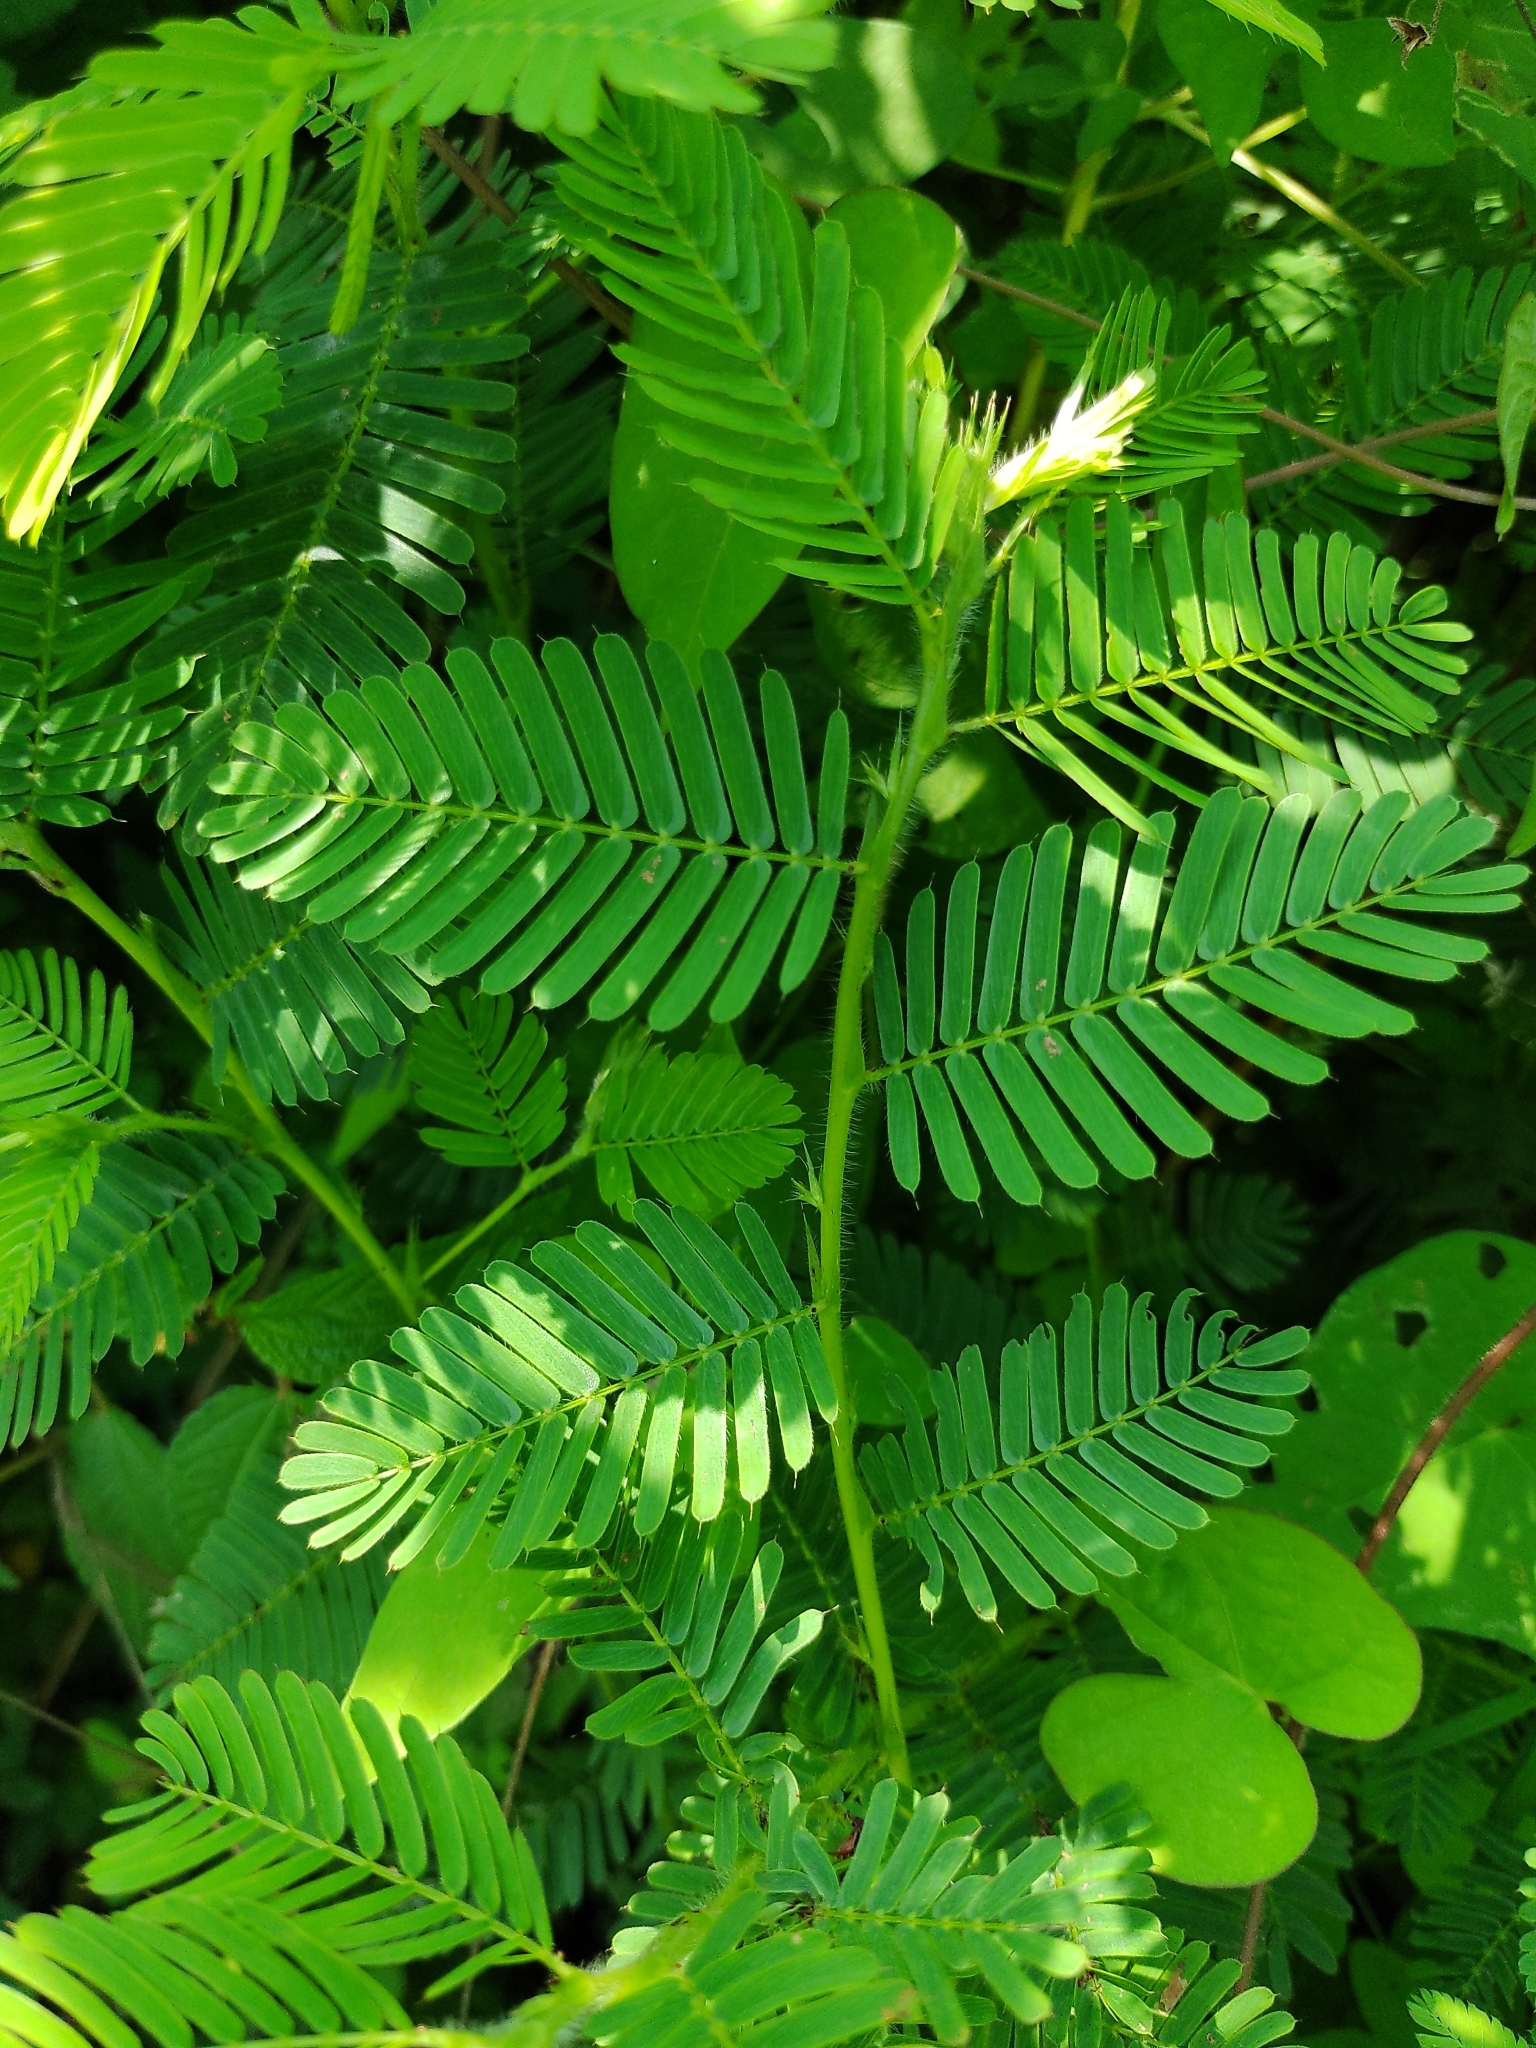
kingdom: Plantae
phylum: Tracheophyta
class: Magnoliopsida
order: Fabales
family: Fabaceae
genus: Mimosa
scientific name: Mimosa tenuiflora
